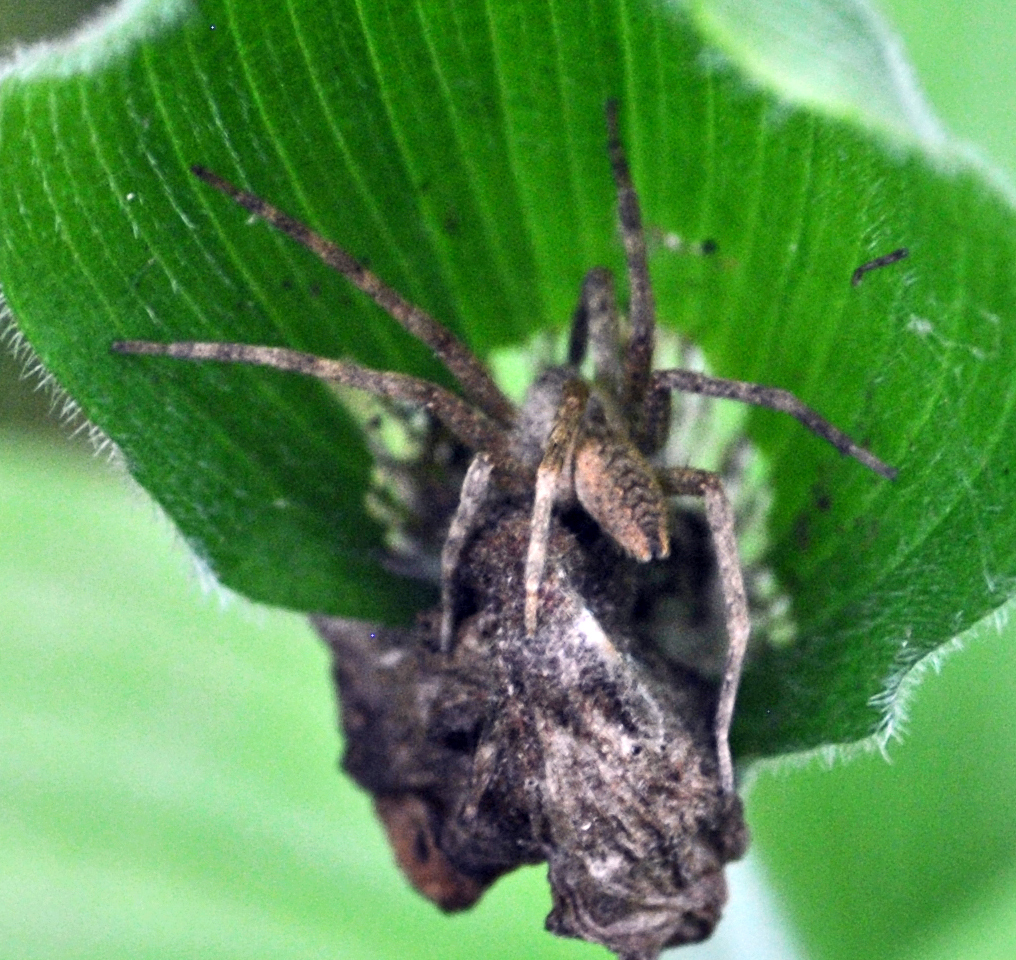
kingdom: Animalia
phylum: Arthropoda
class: Arachnida
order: Araneae
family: Pisauridae
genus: Pisaurina
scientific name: Pisaurina mira
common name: American nursery web spider
